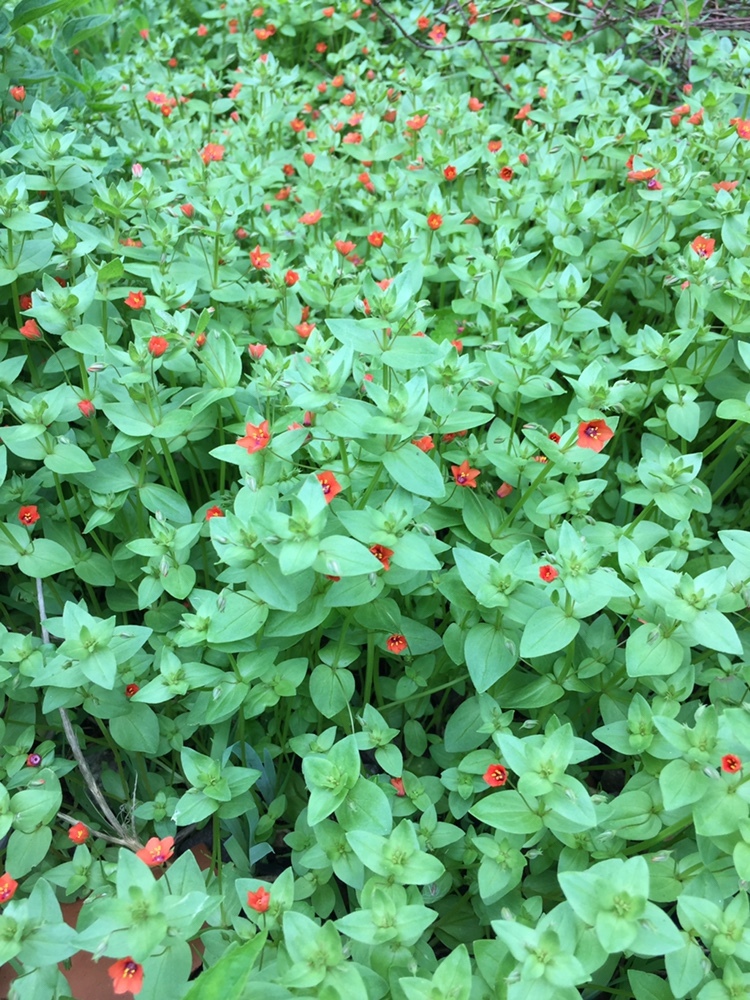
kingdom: Plantae
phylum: Tracheophyta
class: Magnoliopsida
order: Ericales
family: Primulaceae
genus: Lysimachia
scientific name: Lysimachia arvensis
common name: Scarlet pimpernel
